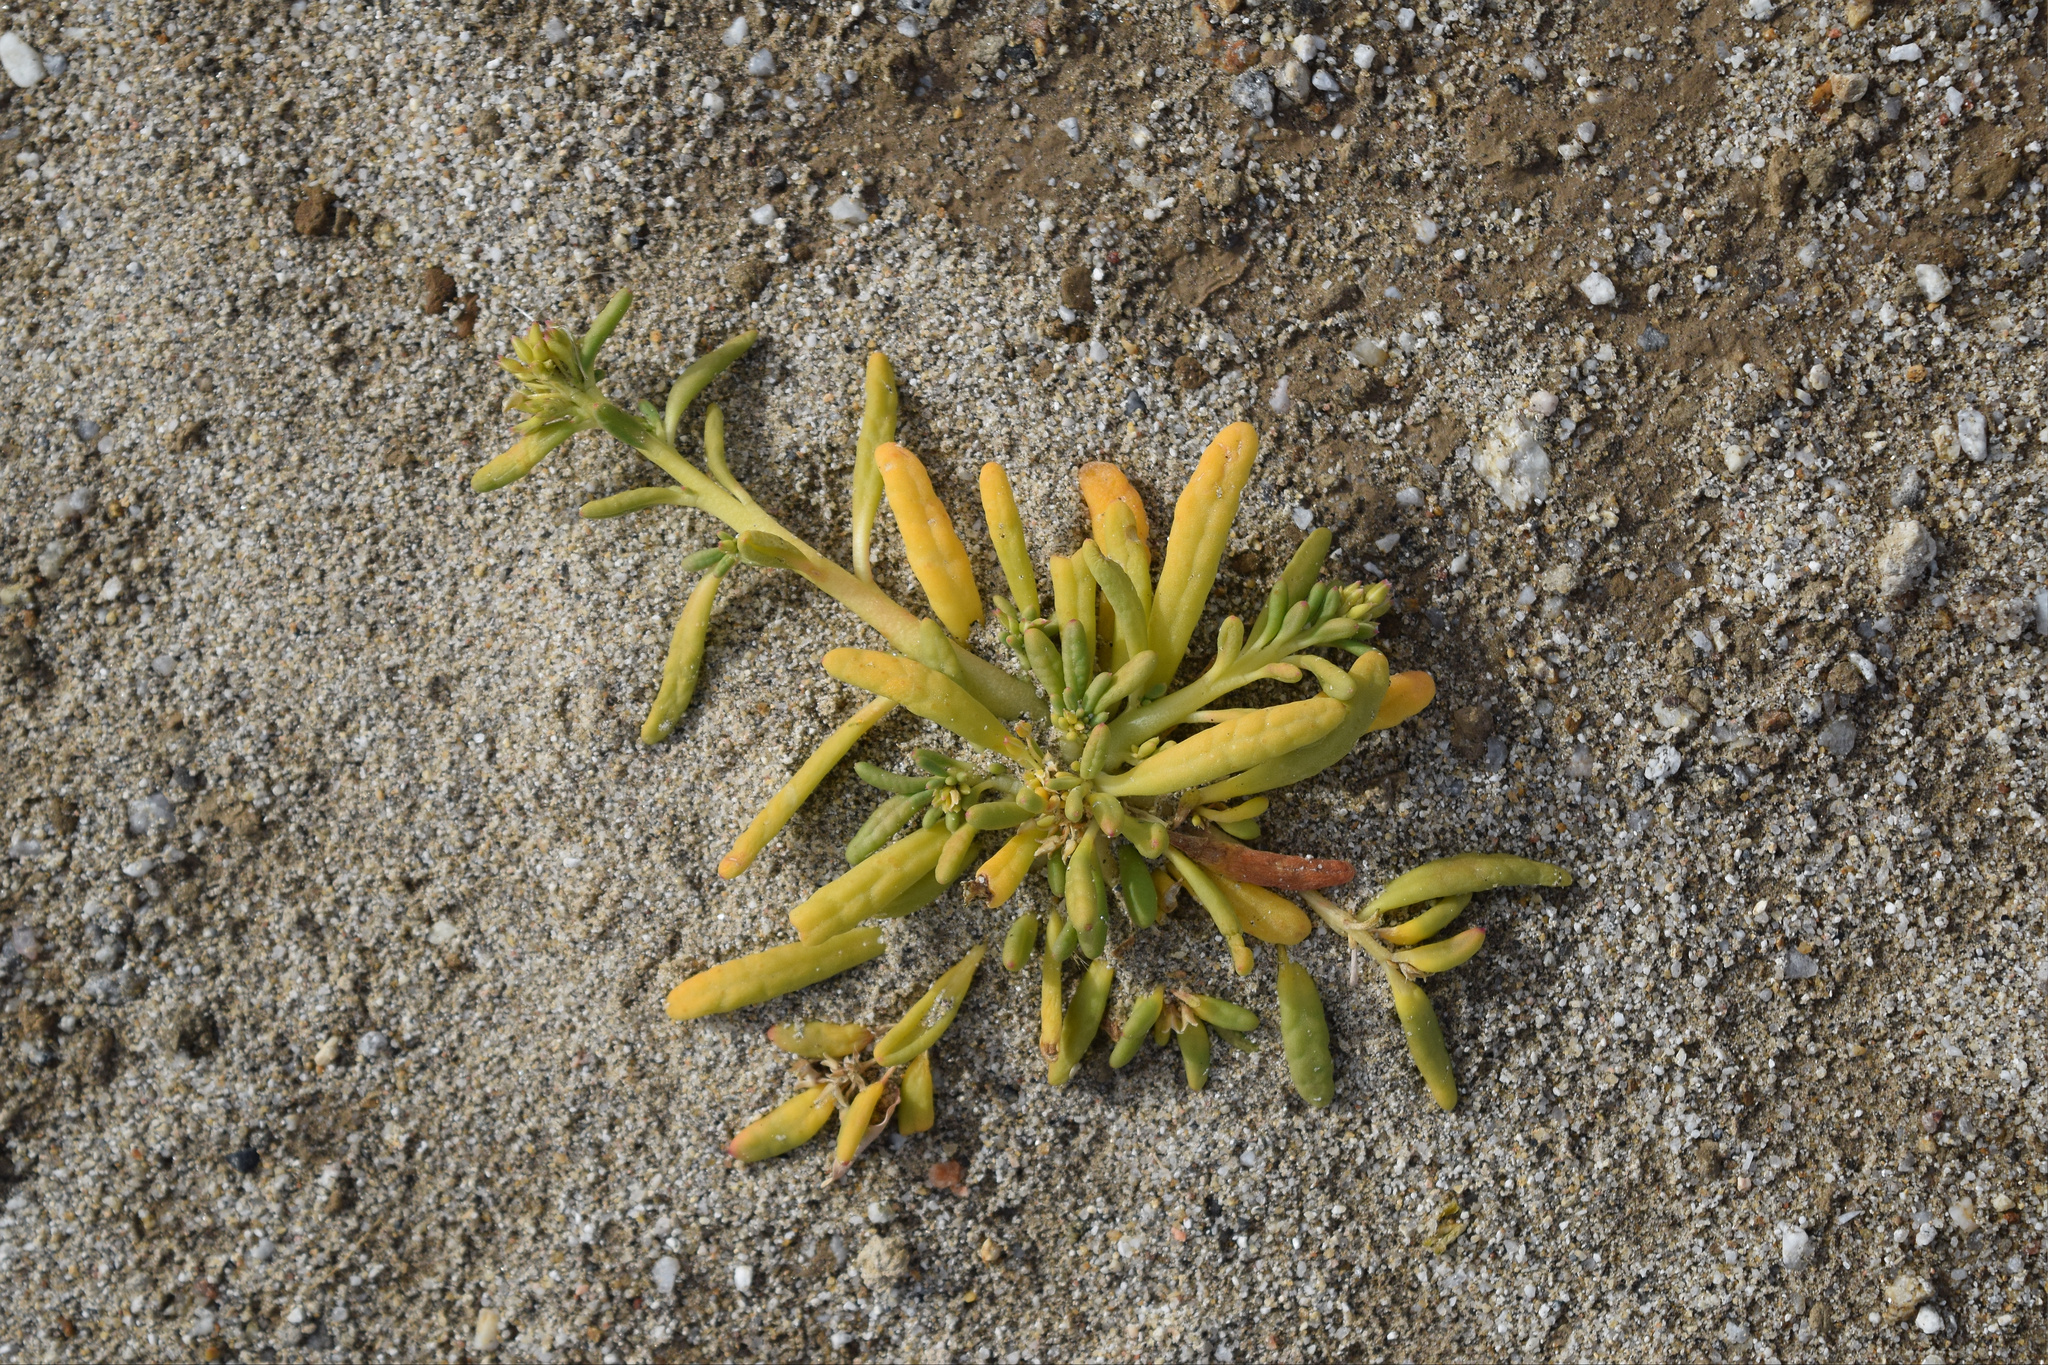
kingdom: Plantae
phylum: Tracheophyta
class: Magnoliopsida
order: Caryophyllales
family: Montiaceae
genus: Thingia
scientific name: Thingia ambigua
